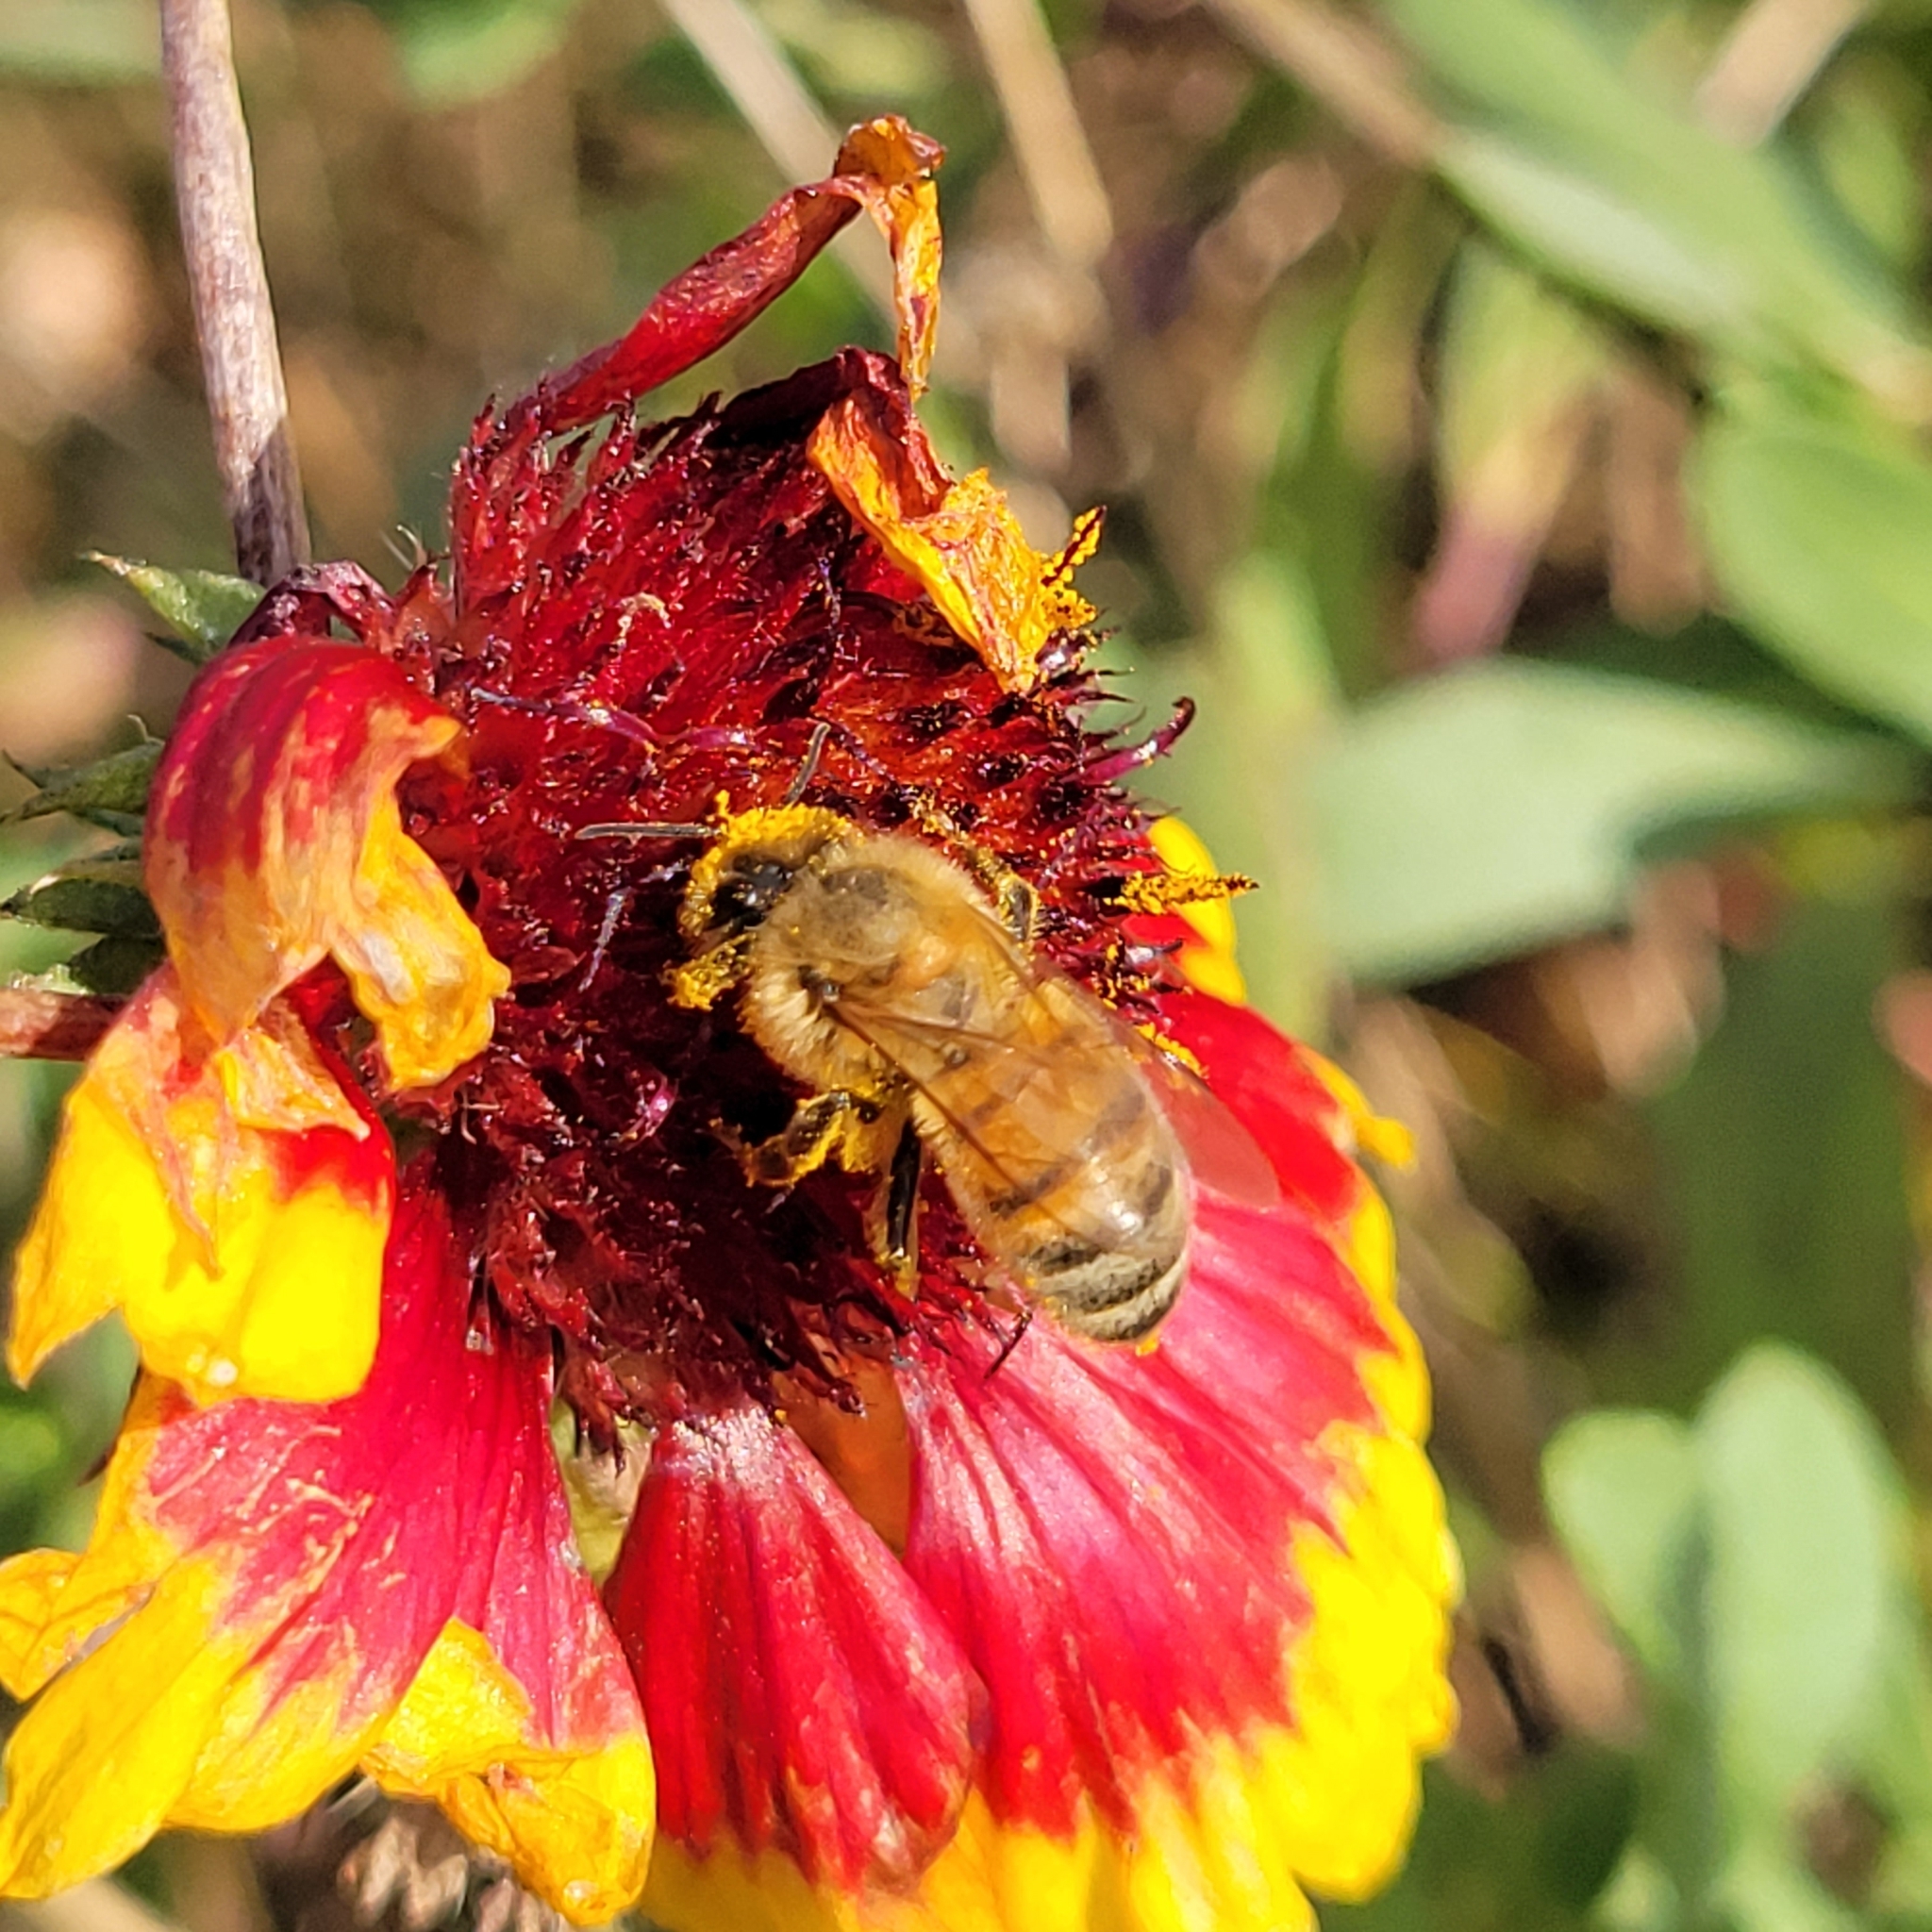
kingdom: Animalia
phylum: Arthropoda
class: Insecta
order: Hymenoptera
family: Apidae
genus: Apis
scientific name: Apis mellifera
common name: Honey bee
